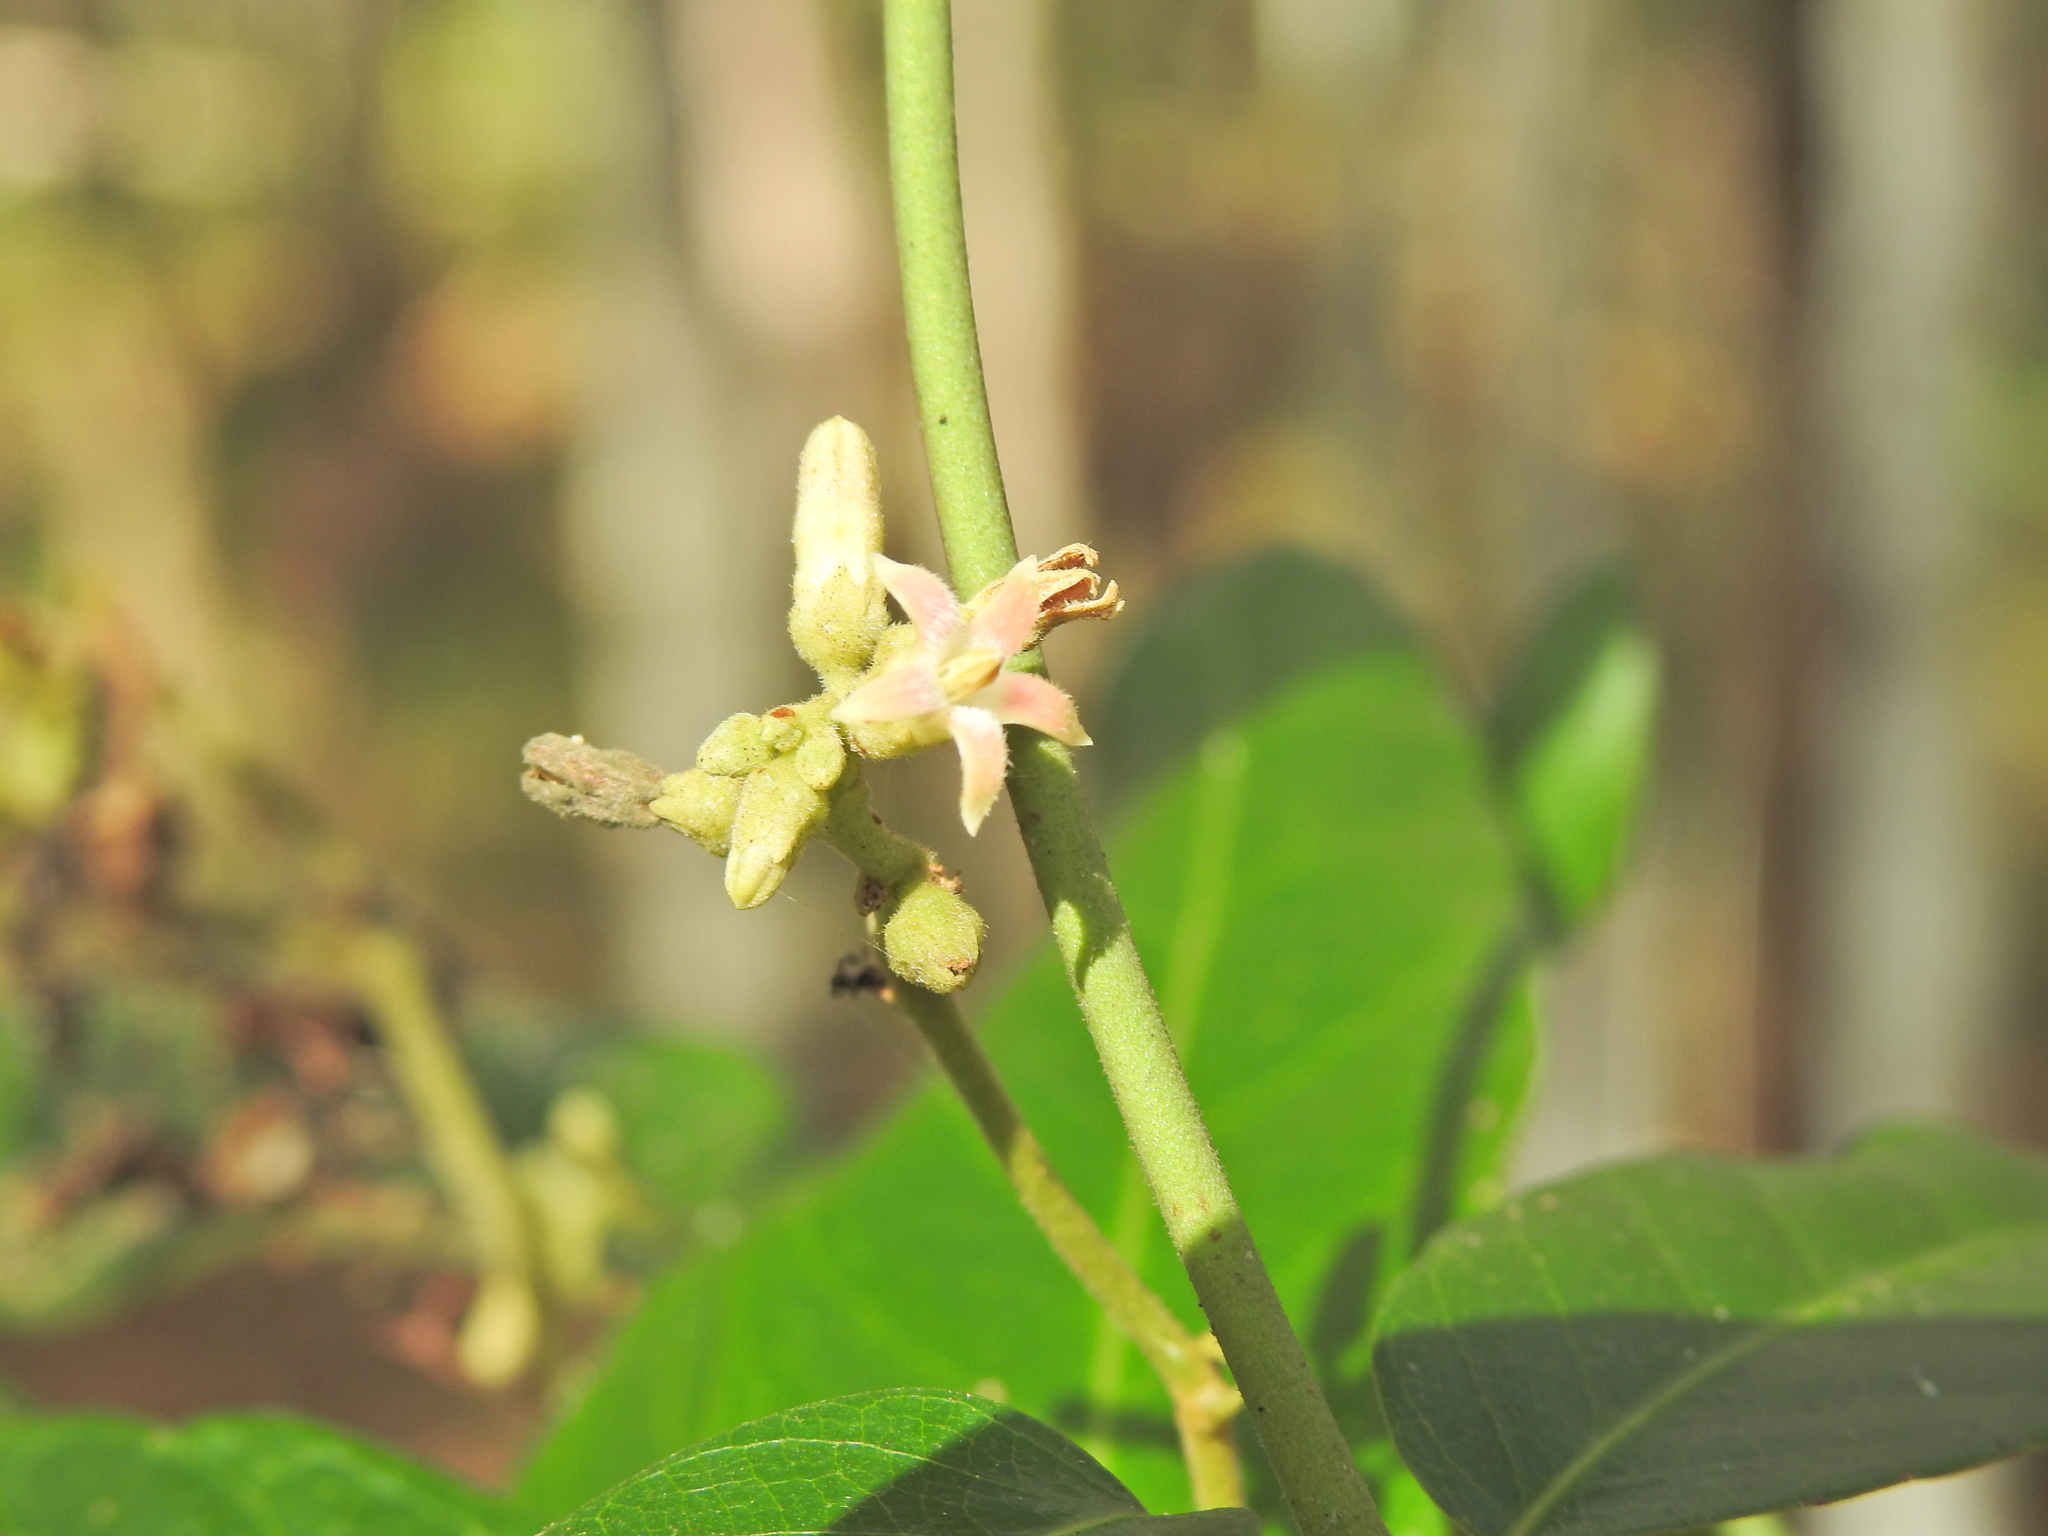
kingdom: Plantae
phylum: Tracheophyta
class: Magnoliopsida
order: Gentianales
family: Apocynaceae
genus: Parsonsia
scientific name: Parsonsia straminea
